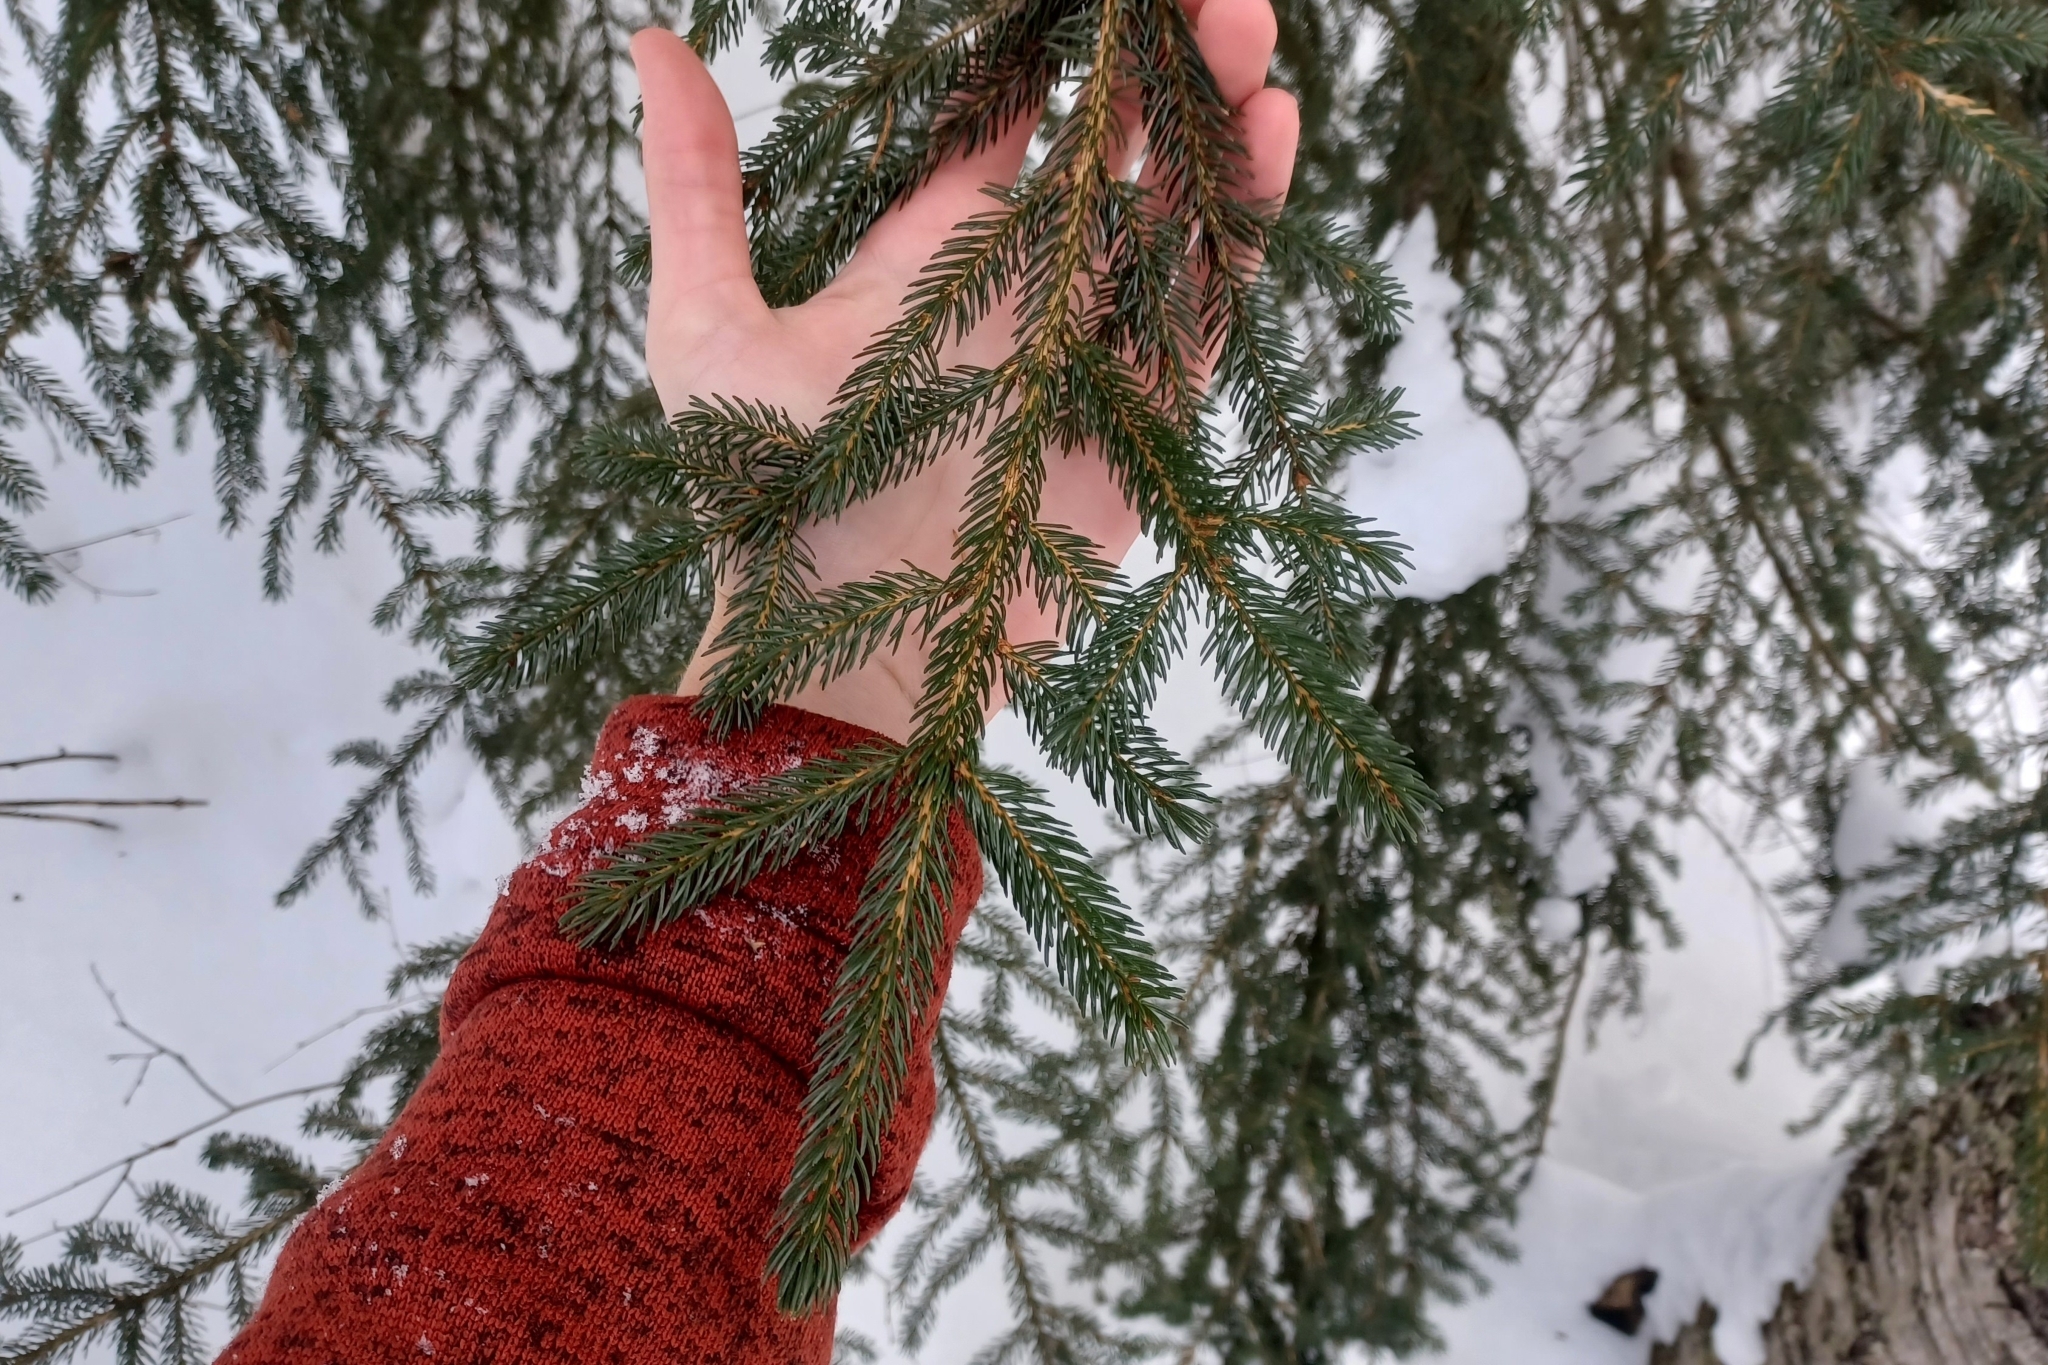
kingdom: Plantae
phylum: Tracheophyta
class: Pinopsida
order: Pinales
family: Pinaceae
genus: Picea
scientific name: Picea rubens
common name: Red spruce
